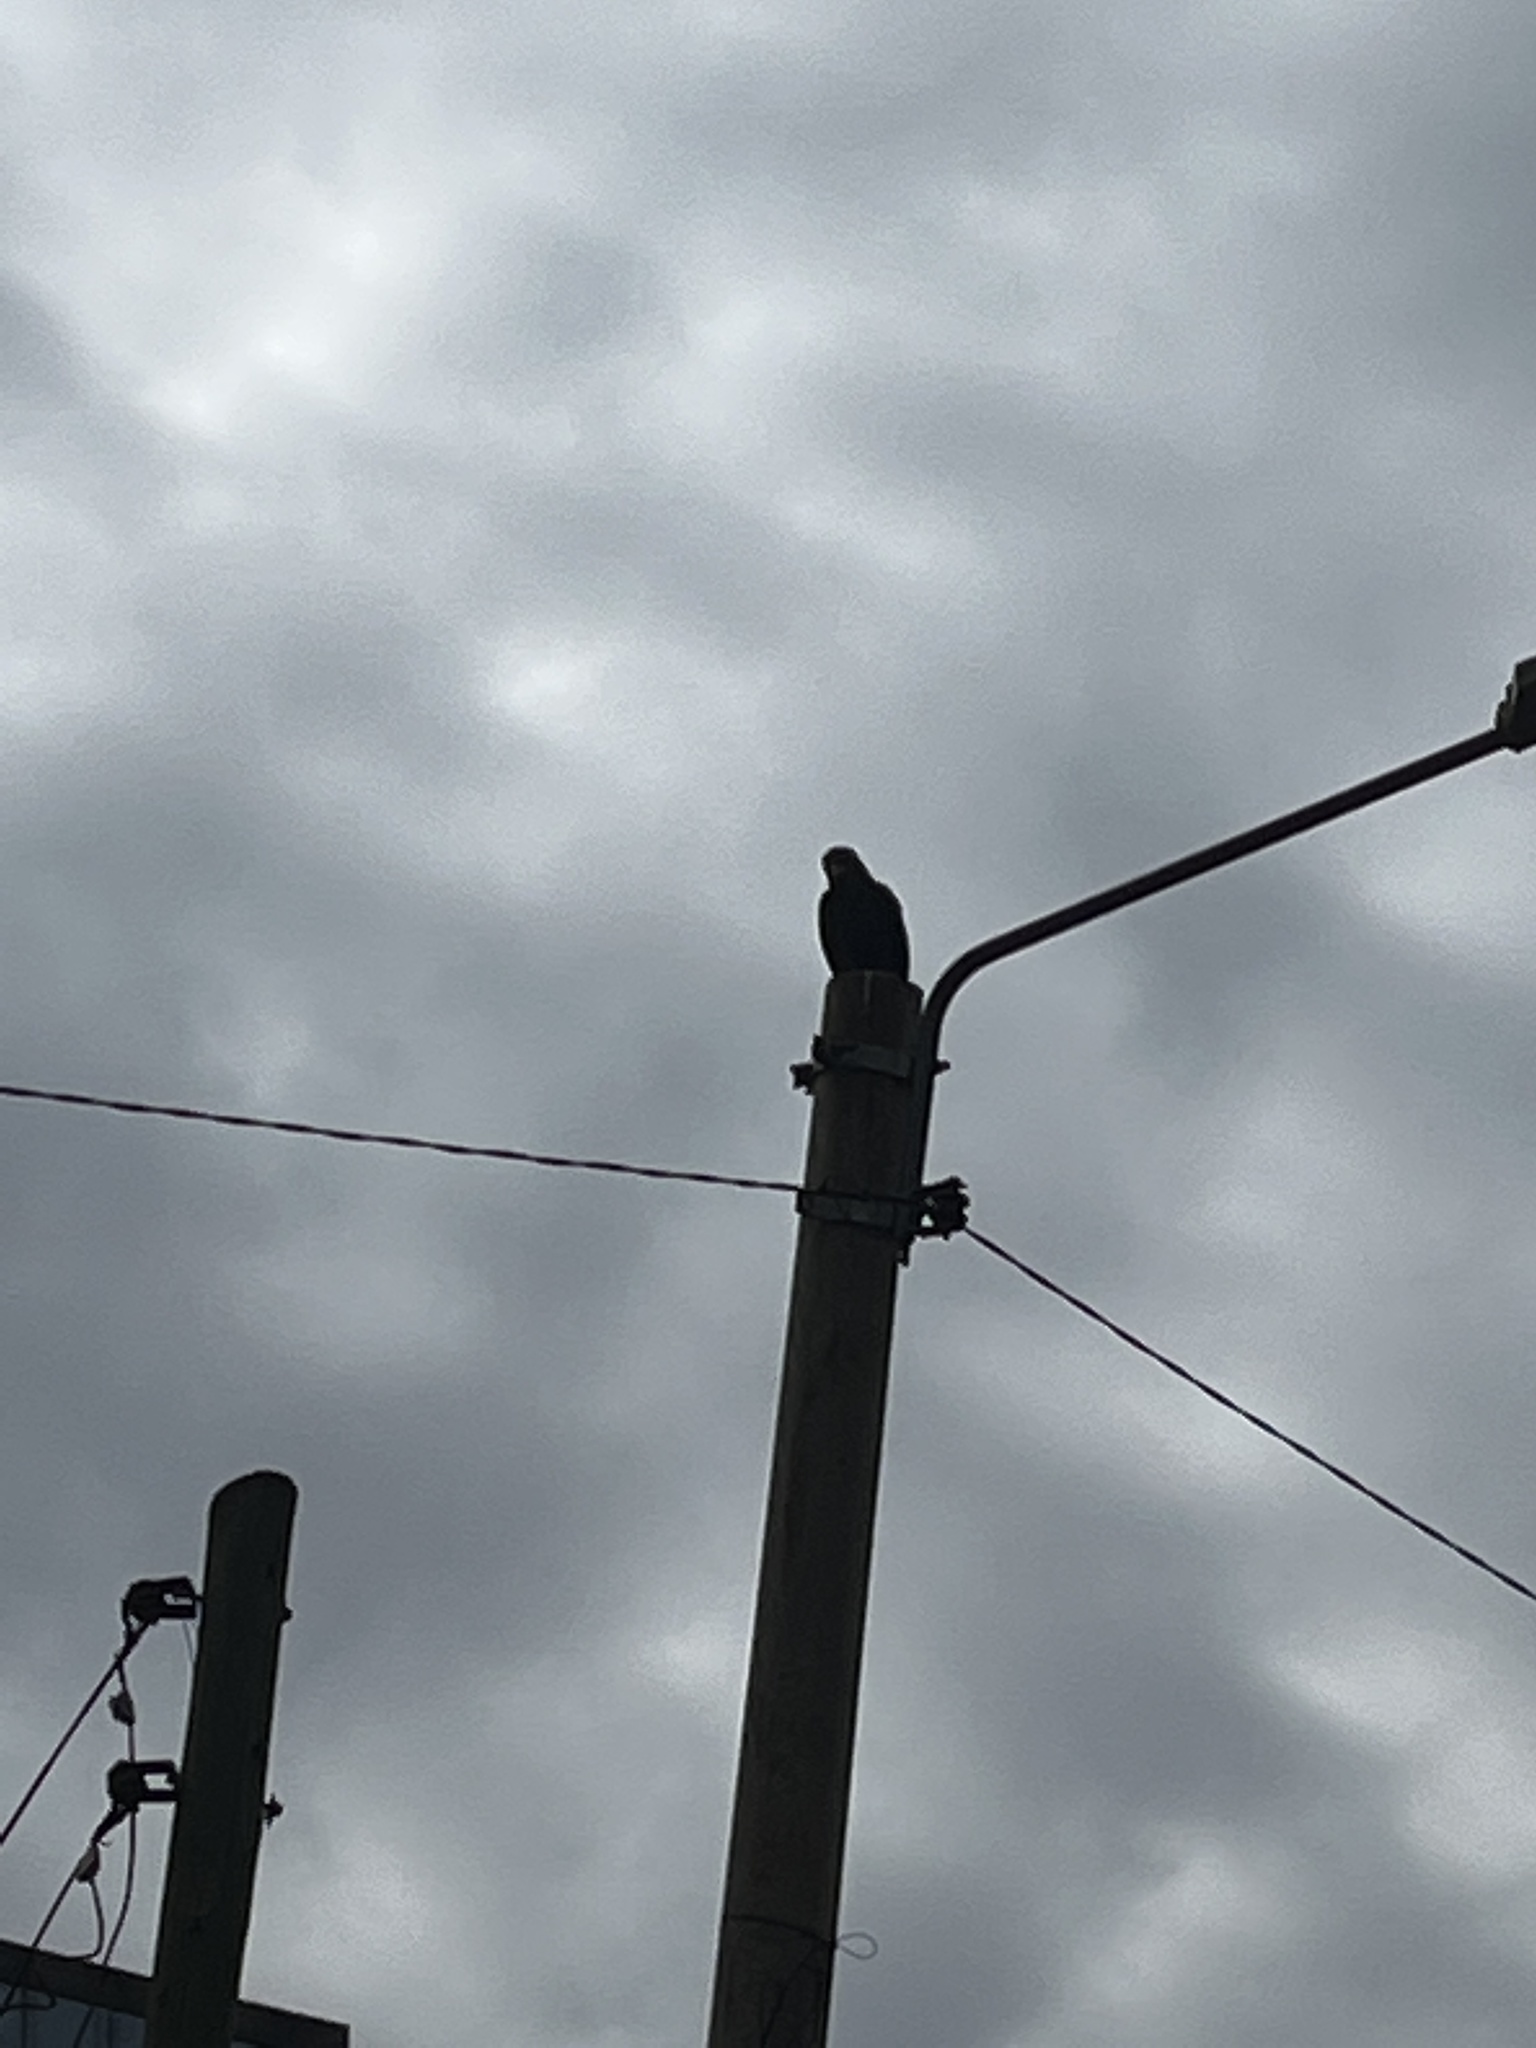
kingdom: Animalia
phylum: Chordata
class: Aves
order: Accipitriformes
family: Accipitridae
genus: Milvus
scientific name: Milvus migrans
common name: Black kite
